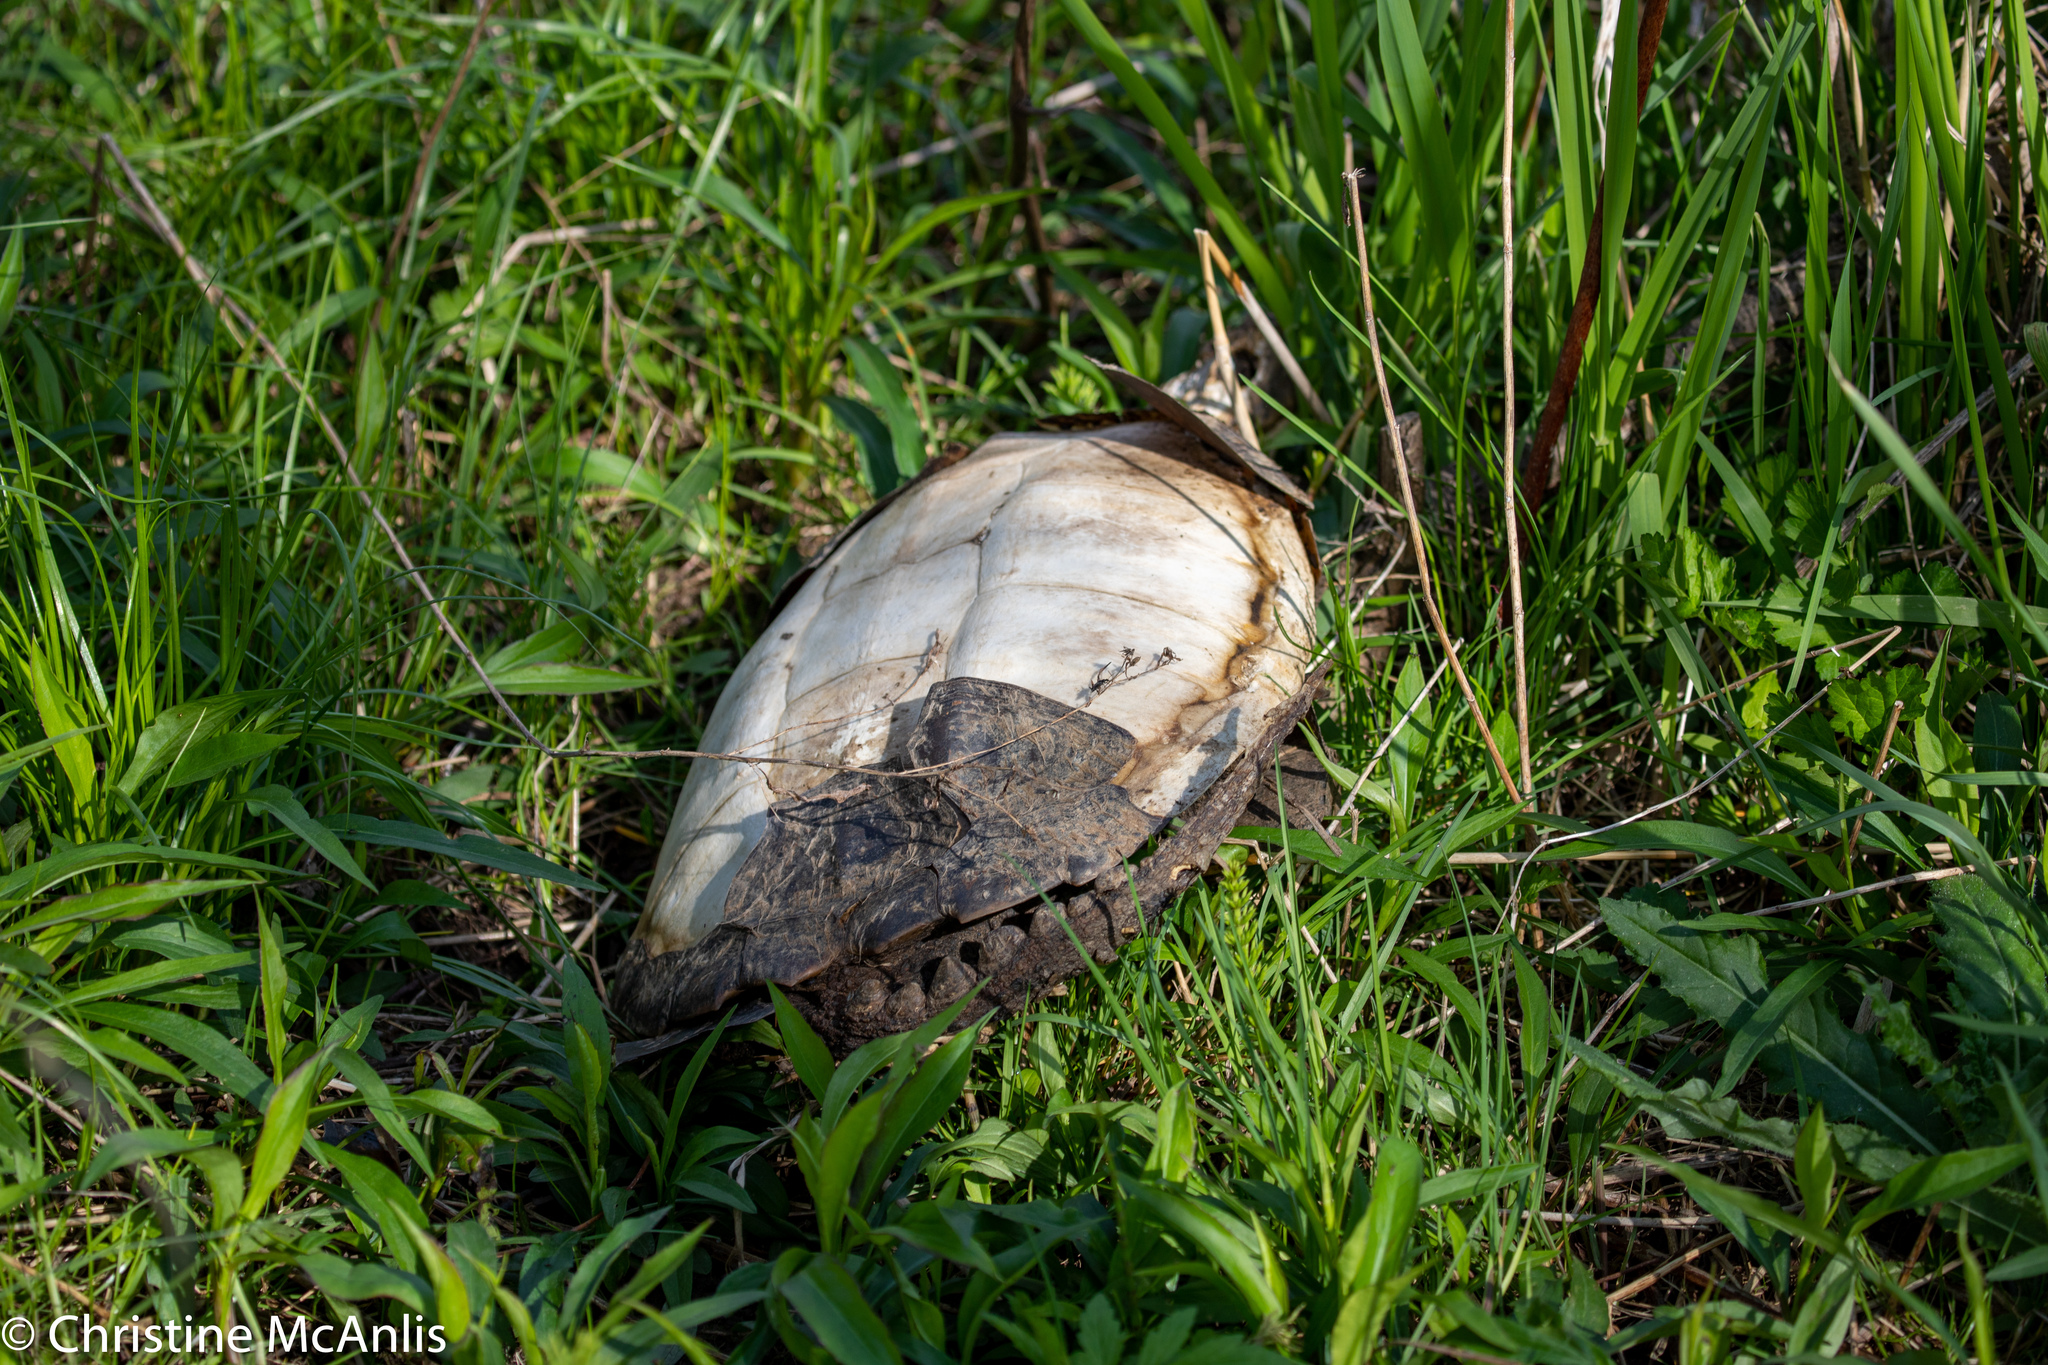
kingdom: Animalia
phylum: Chordata
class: Testudines
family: Chelydridae
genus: Chelydra
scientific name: Chelydra serpentina
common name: Common snapping turtle
